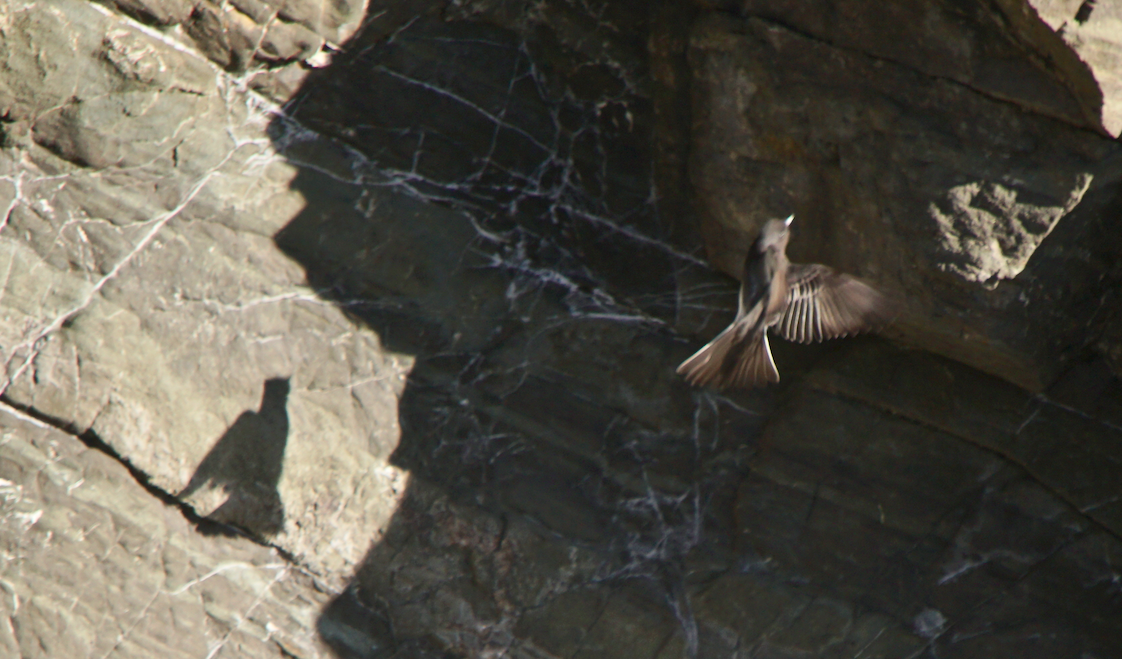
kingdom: Animalia
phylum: Chordata
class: Aves
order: Passeriformes
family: Tyrannidae
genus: Sayornis
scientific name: Sayornis nigricans
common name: Black phoebe
